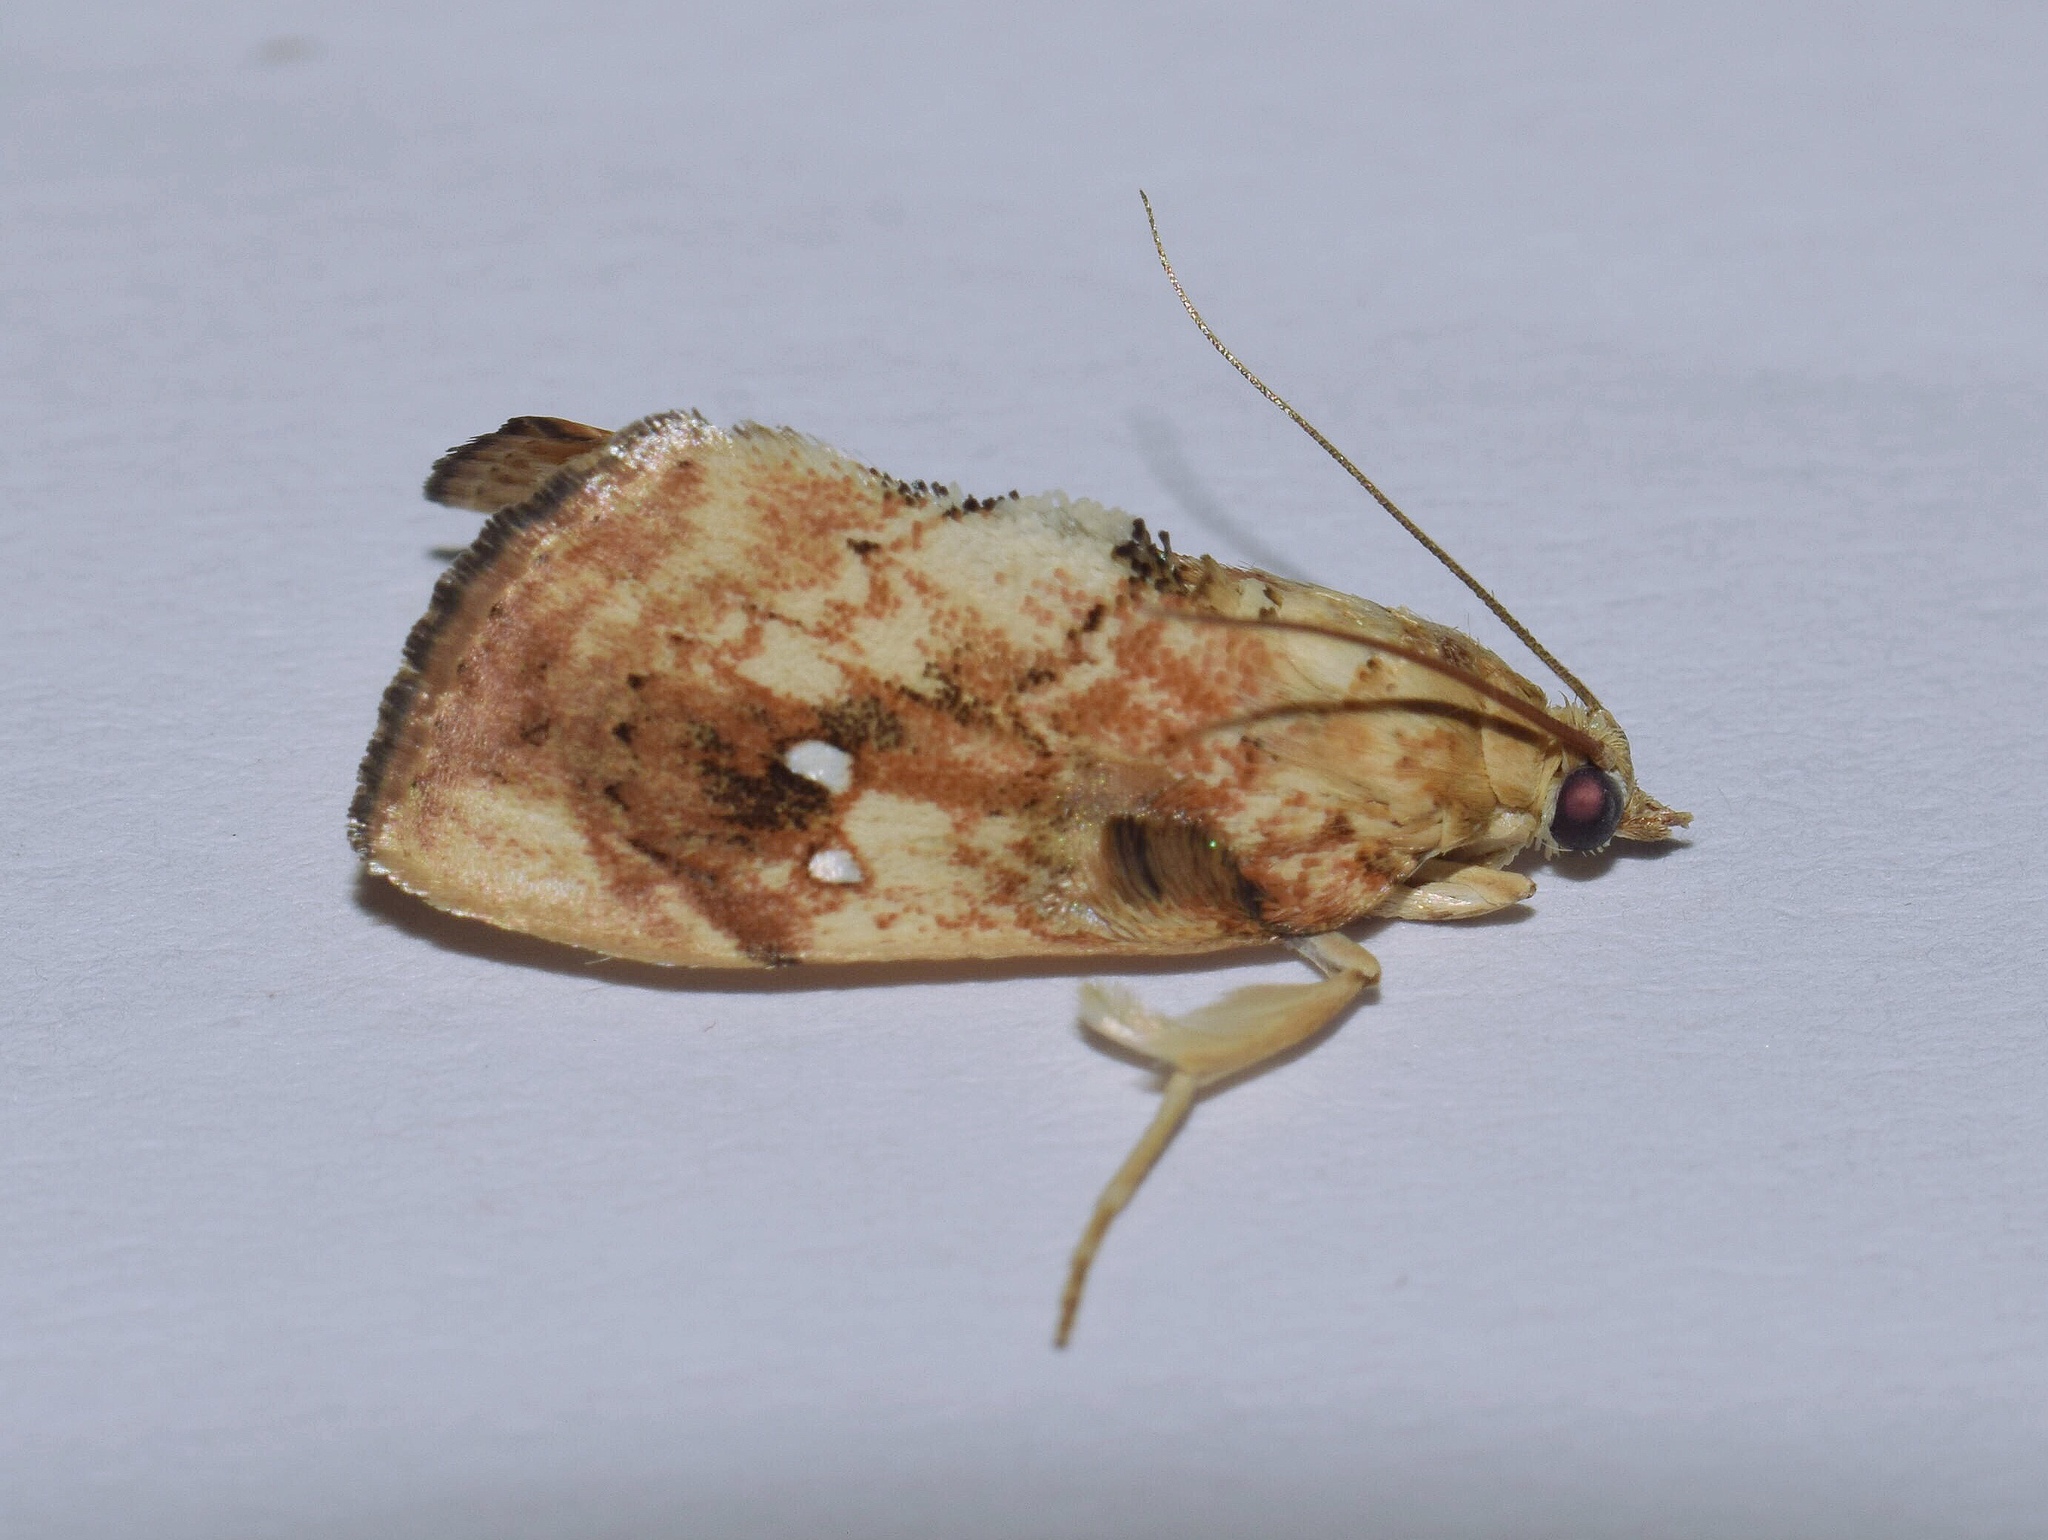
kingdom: Animalia
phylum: Arthropoda
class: Insecta
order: Lepidoptera
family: Crambidae
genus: Crocidolomia
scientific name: Crocidolomia pavonana
